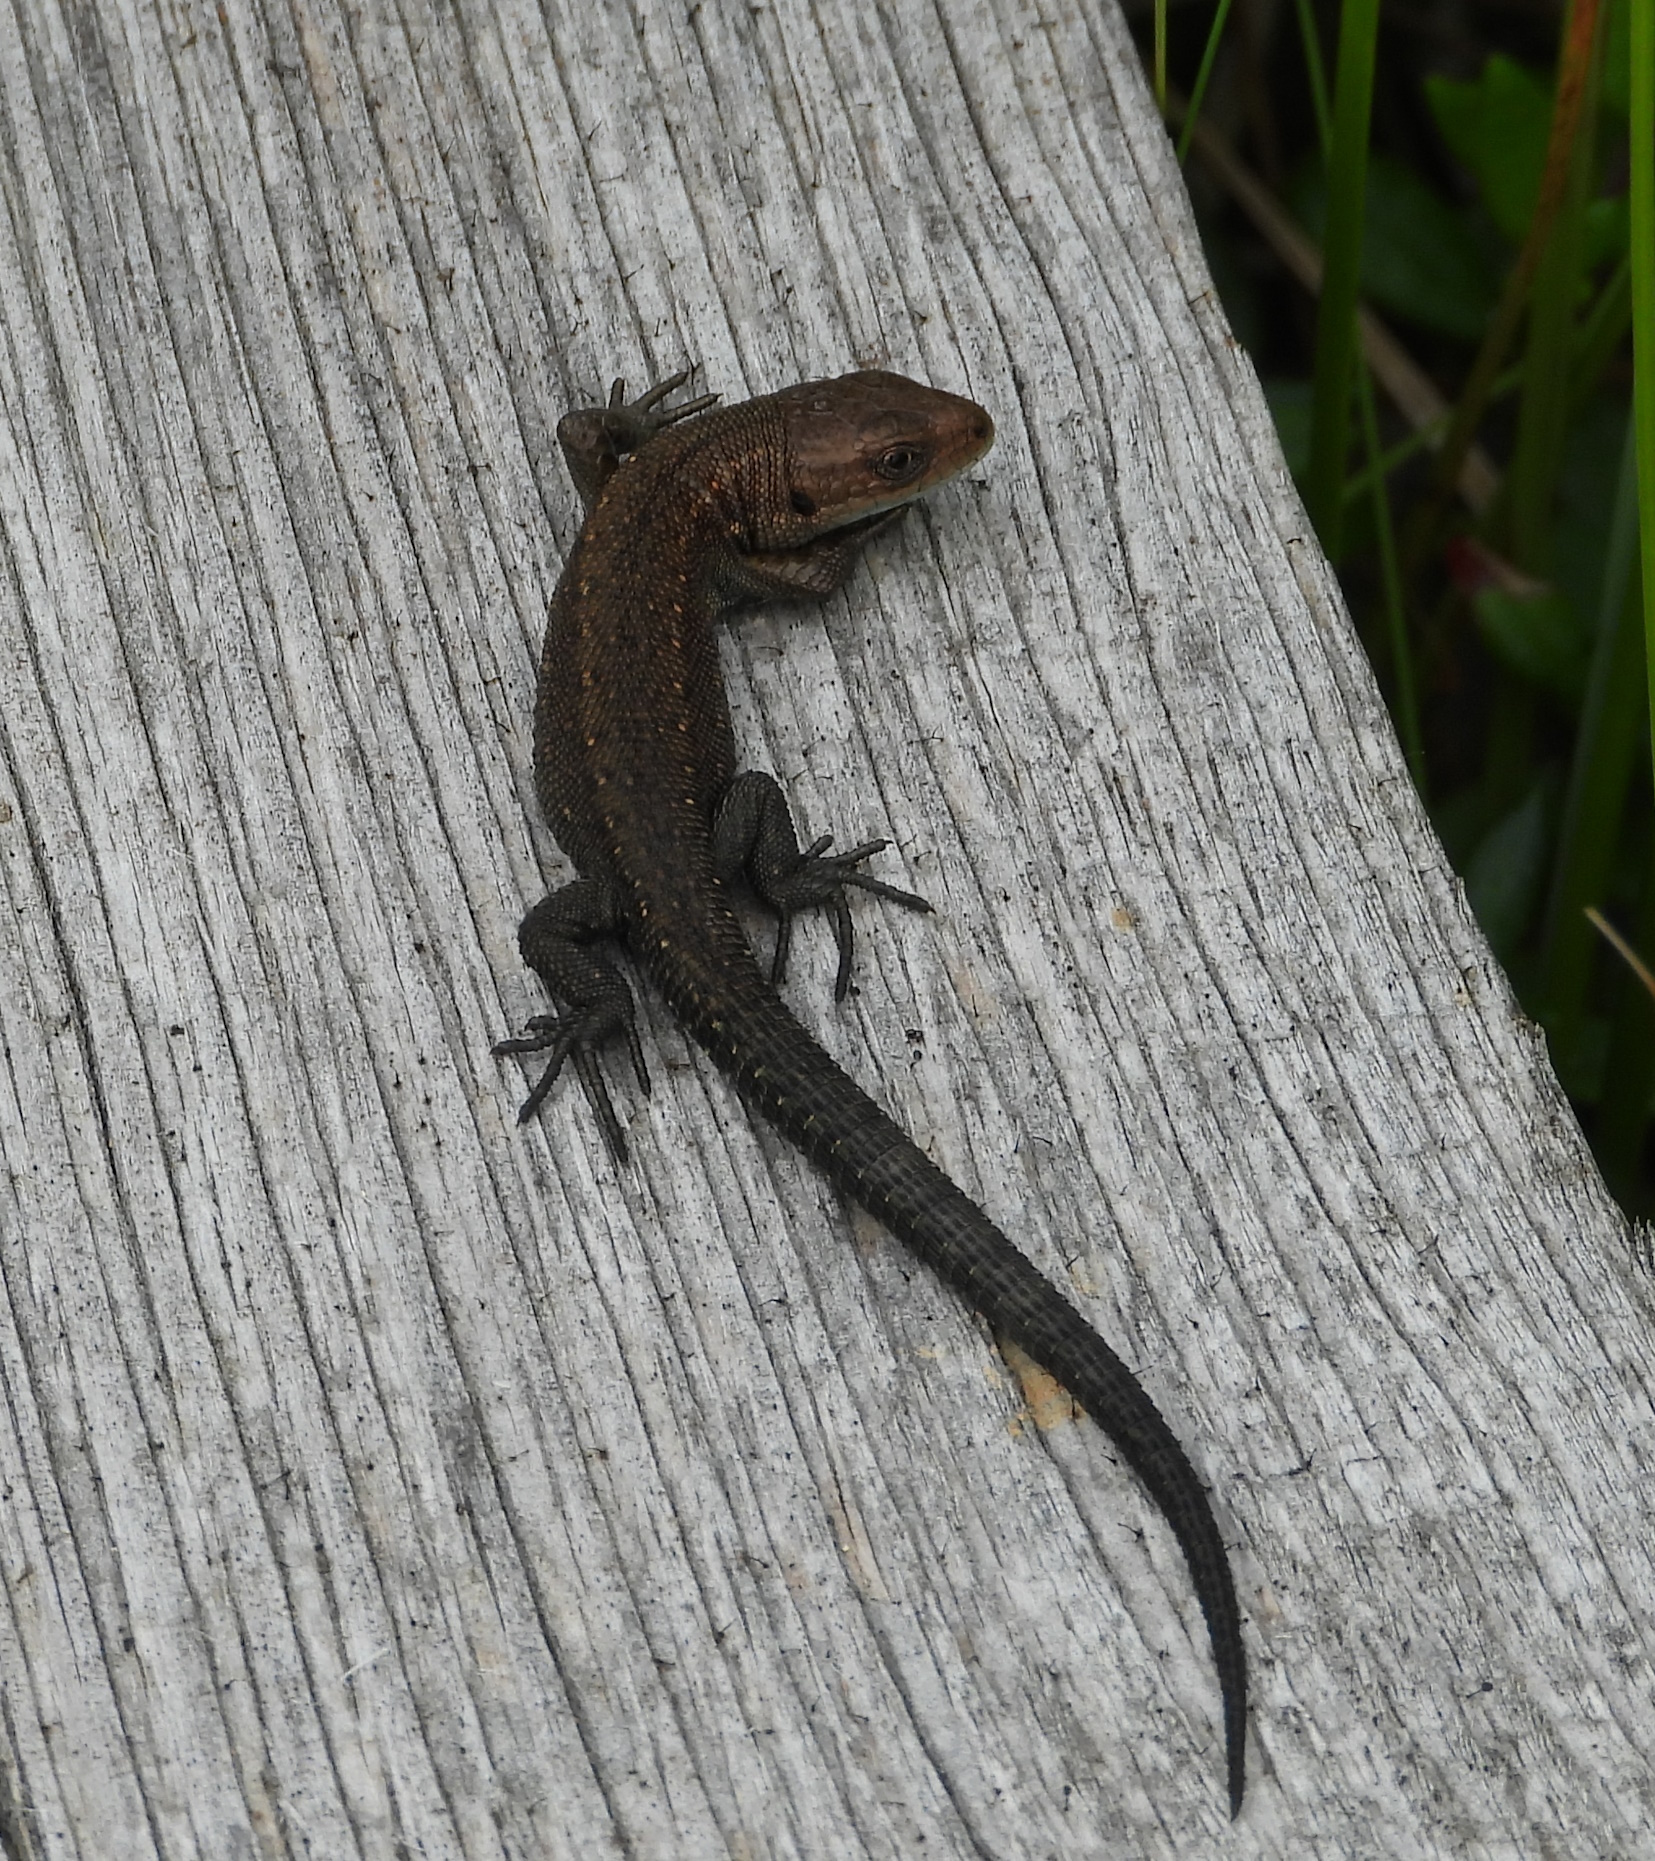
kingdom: Animalia
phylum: Chordata
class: Squamata
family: Lacertidae
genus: Zootoca
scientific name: Zootoca vivipara
